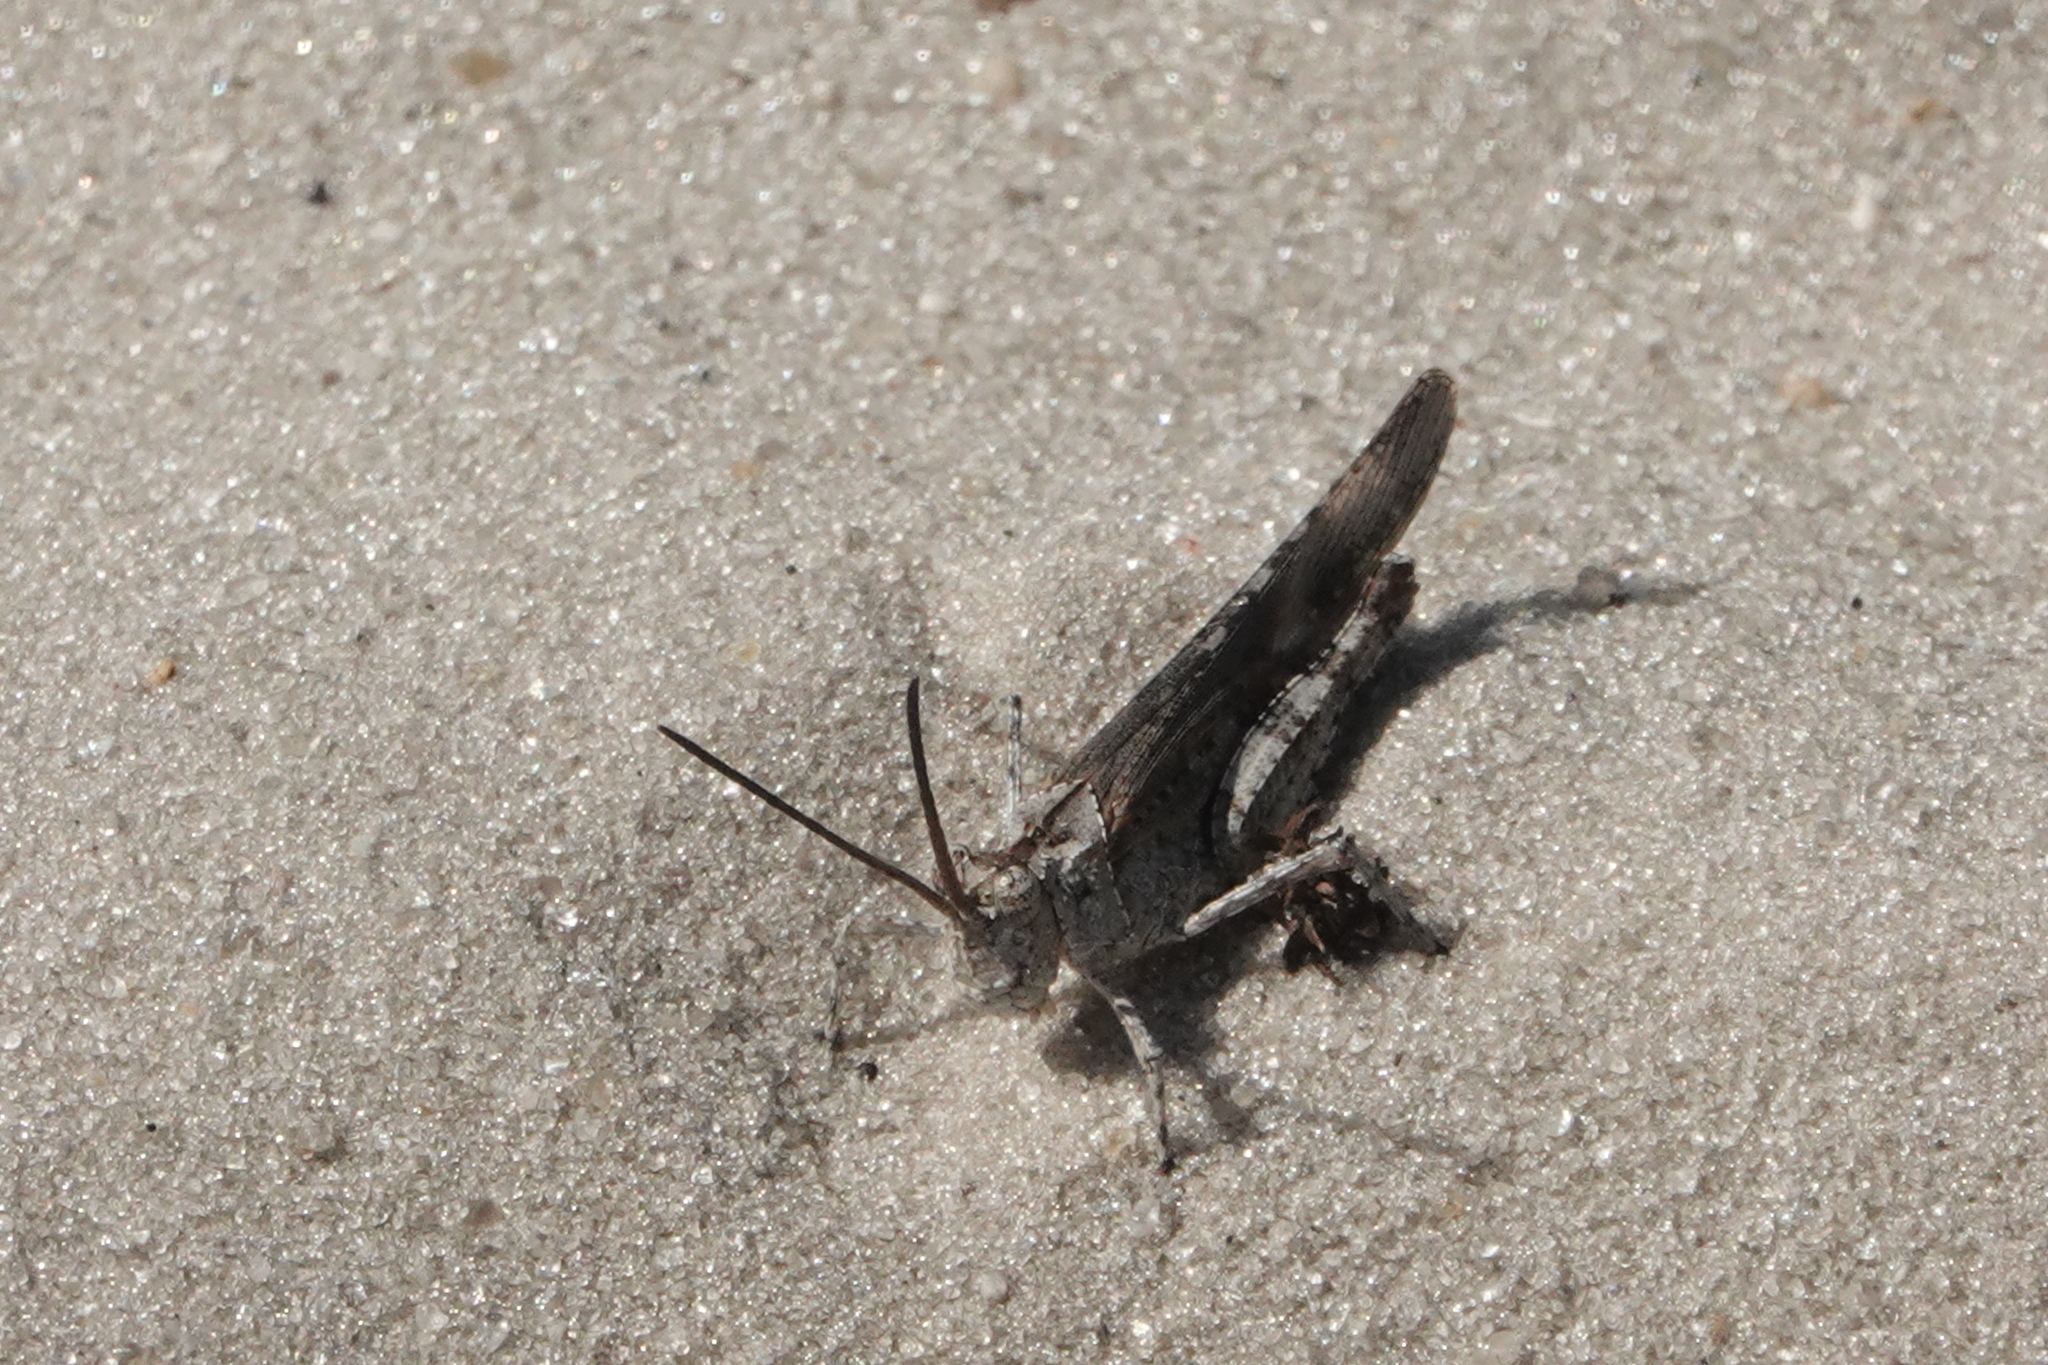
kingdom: Animalia
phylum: Arthropoda
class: Insecta
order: Orthoptera
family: Acrididae
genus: Psinidia
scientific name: Psinidia fenestralis
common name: Long-horned locust
